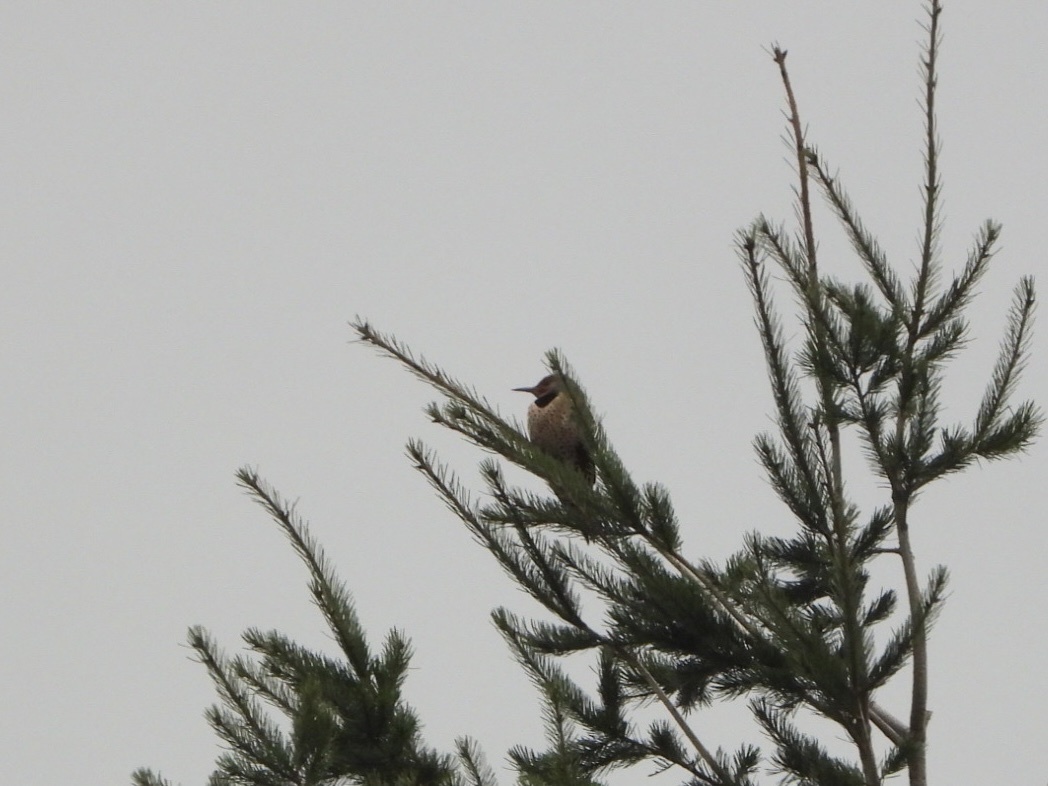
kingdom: Animalia
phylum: Chordata
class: Aves
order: Piciformes
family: Picidae
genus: Colaptes
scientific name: Colaptes auratus
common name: Northern flicker
